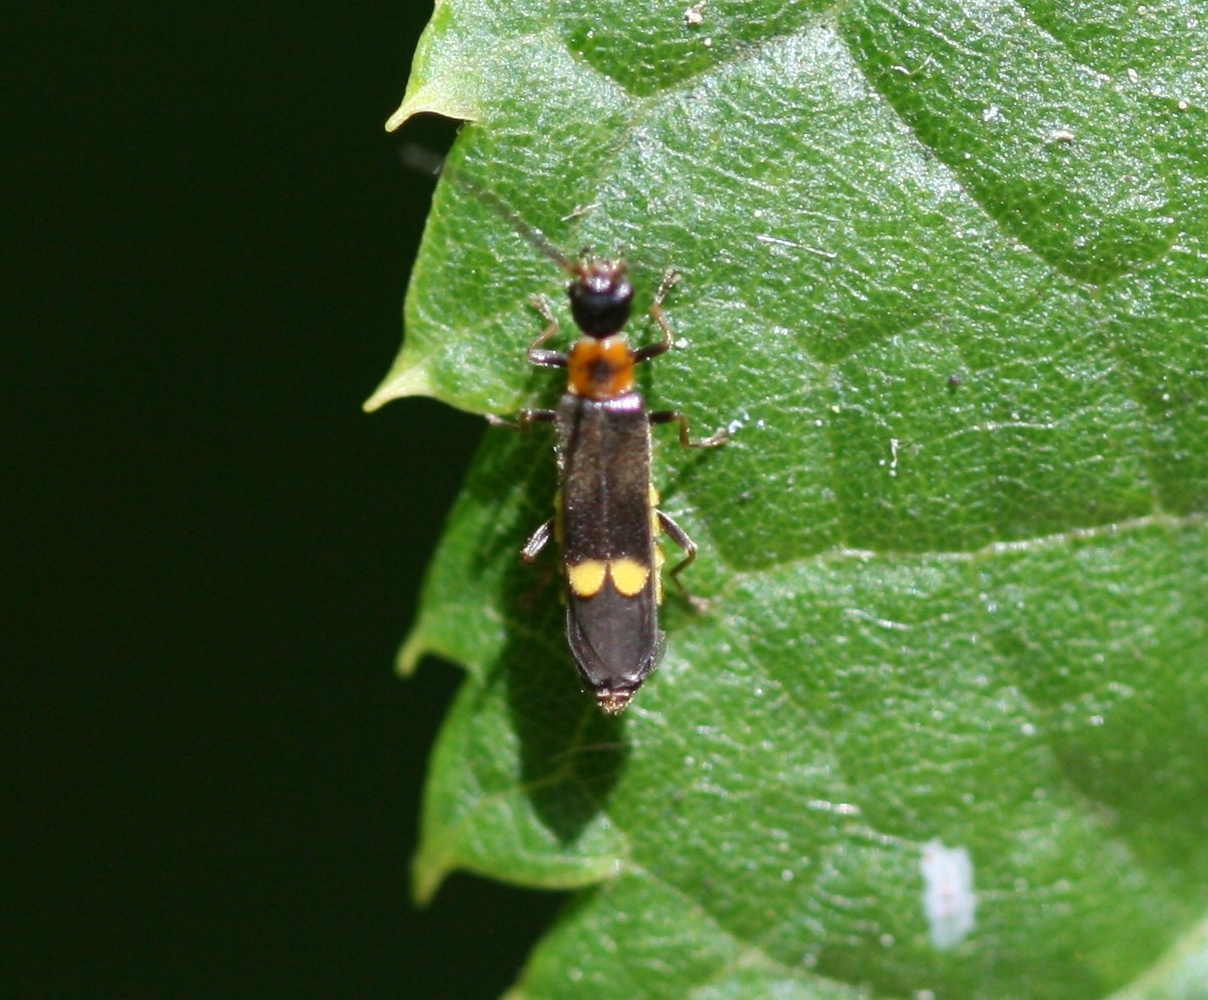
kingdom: Animalia
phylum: Arthropoda
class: Insecta
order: Coleoptera
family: Cantharidae
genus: Malthodes
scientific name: Malthodes minimus
